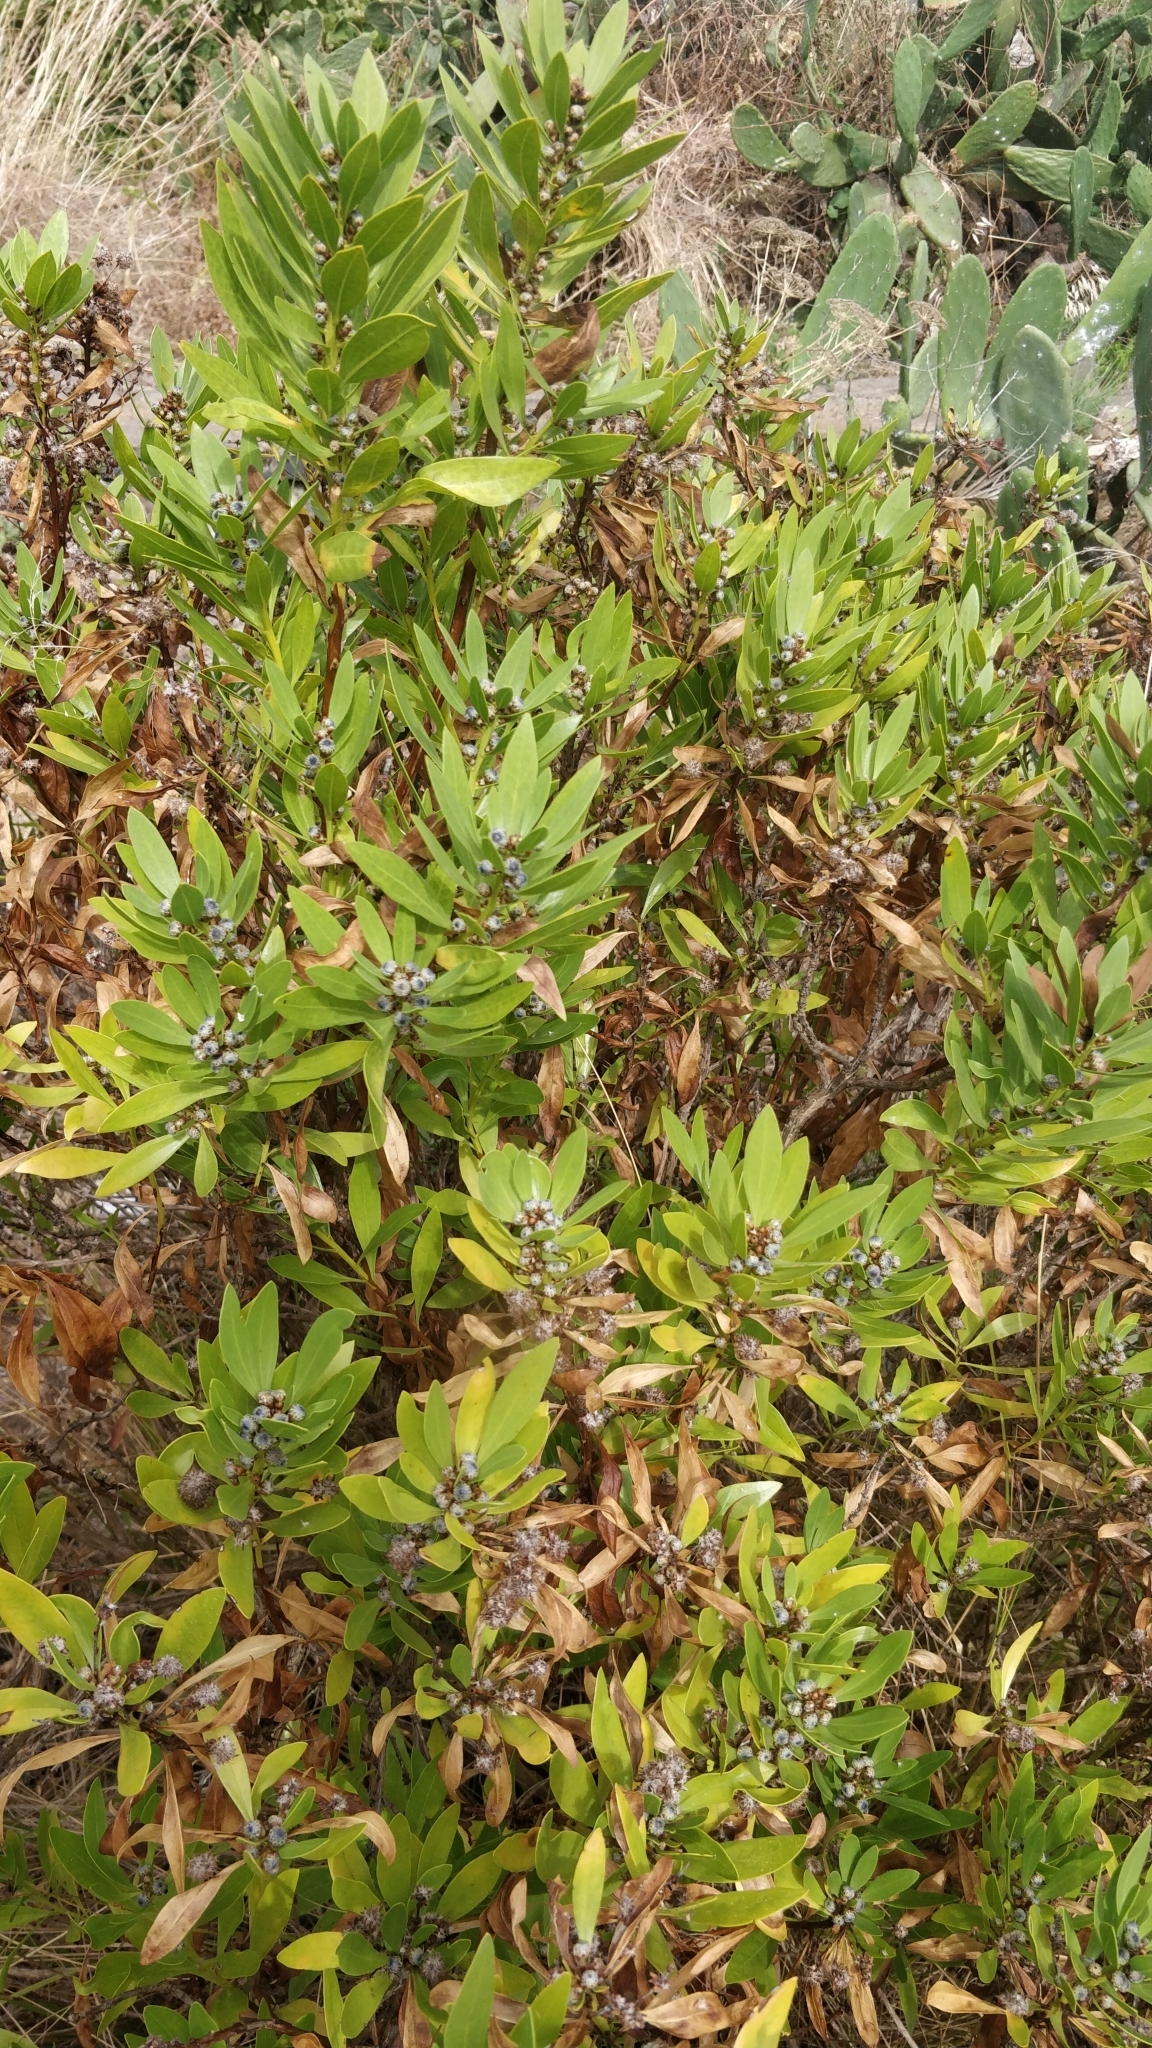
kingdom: Plantae
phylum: Tracheophyta
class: Magnoliopsida
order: Lamiales
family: Plantaginaceae
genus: Globularia
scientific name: Globularia salicina
